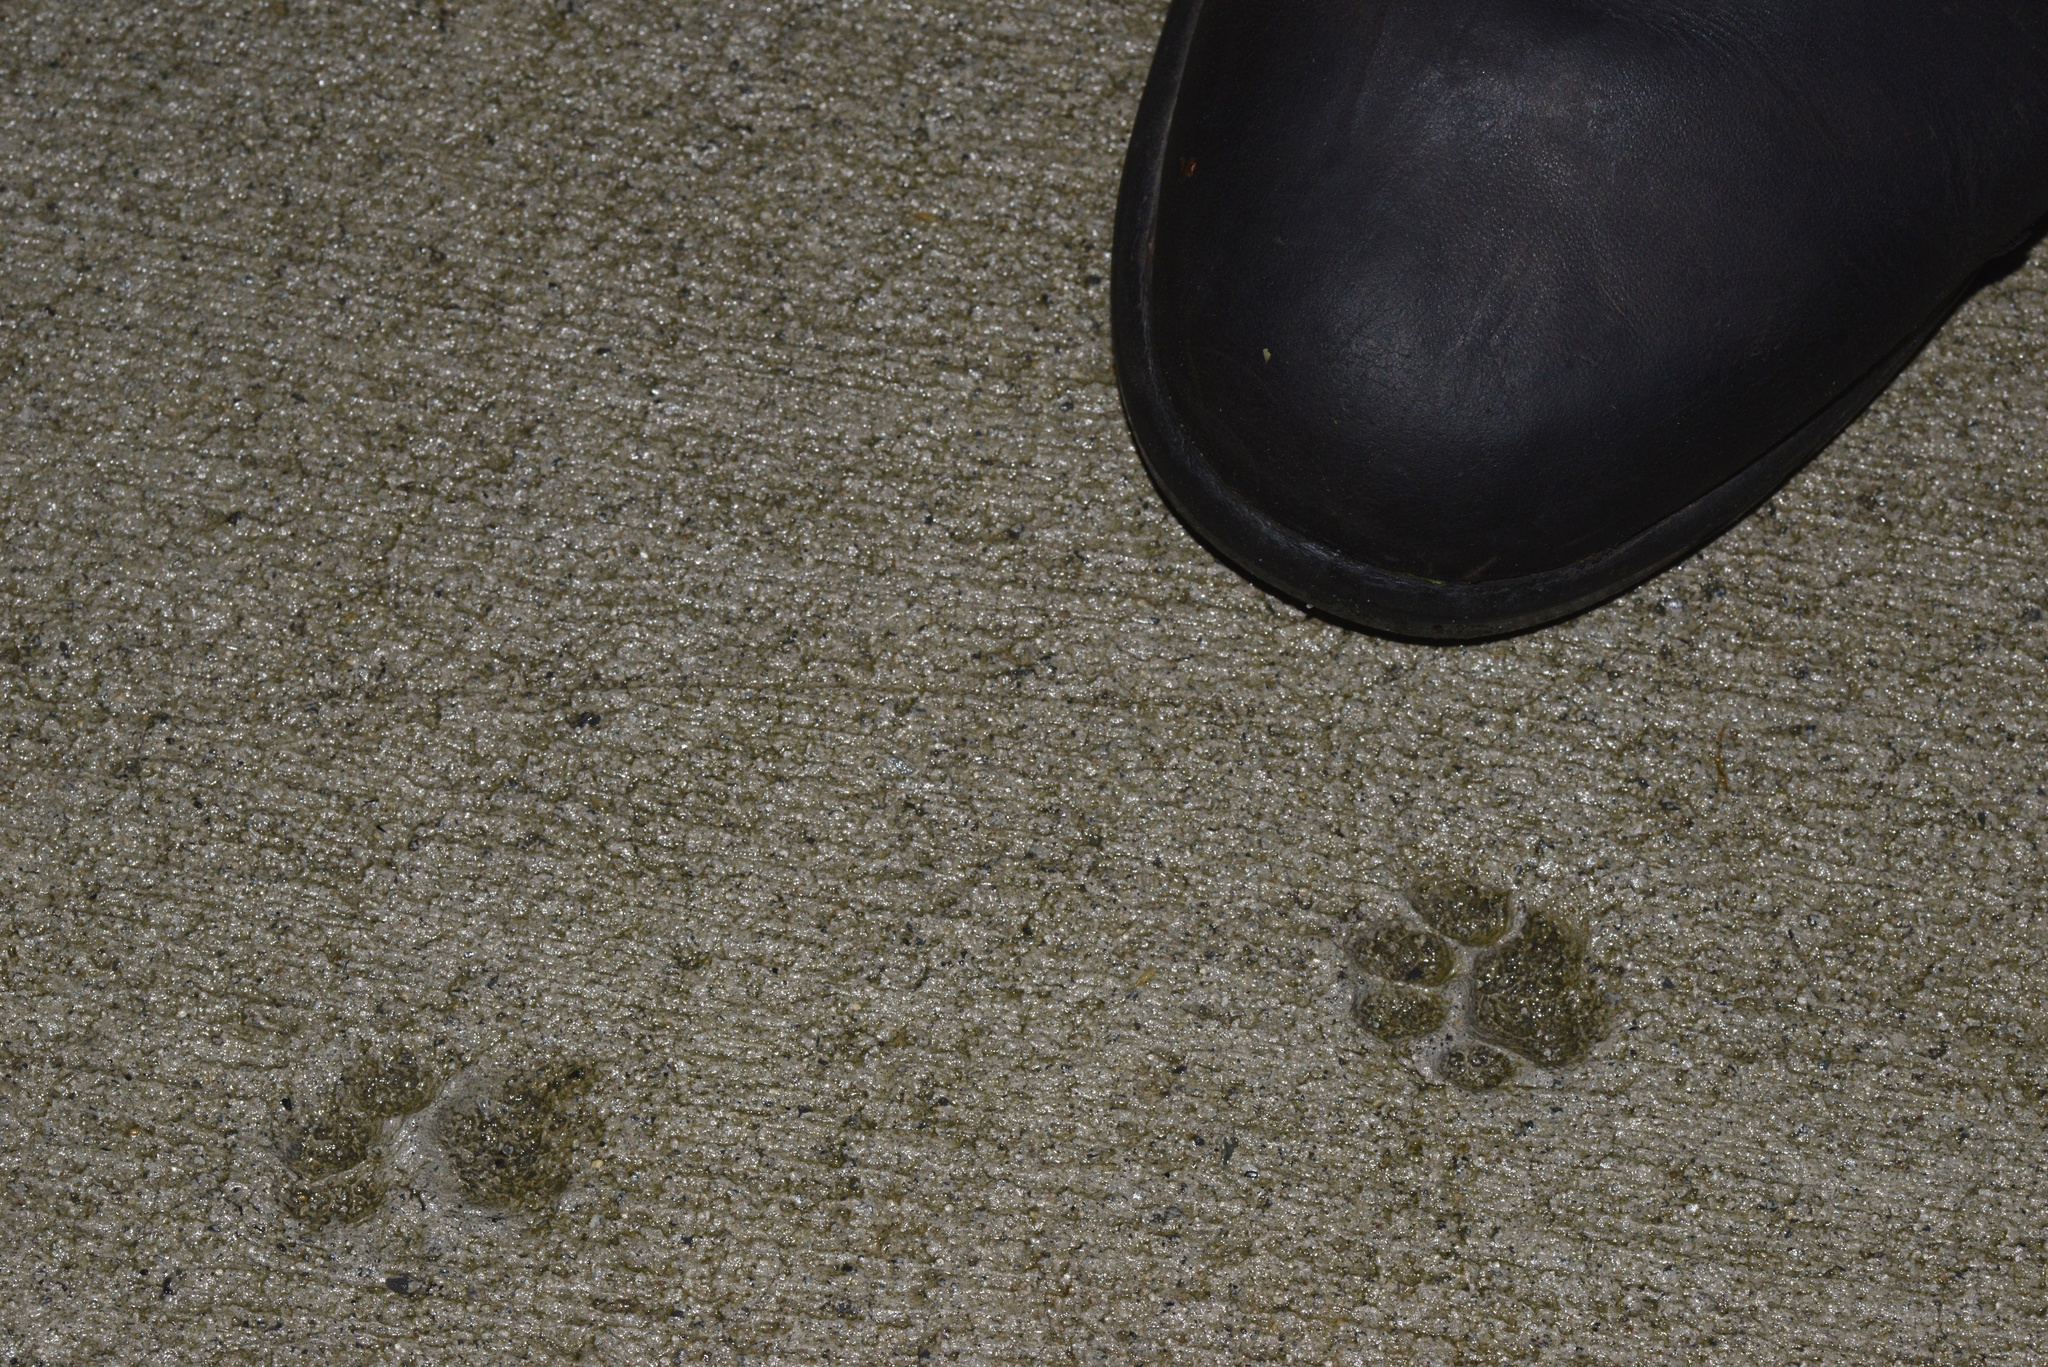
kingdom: Animalia
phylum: Chordata
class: Mammalia
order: Carnivora
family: Felidae
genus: Felis
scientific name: Felis catus
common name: Domestic cat
